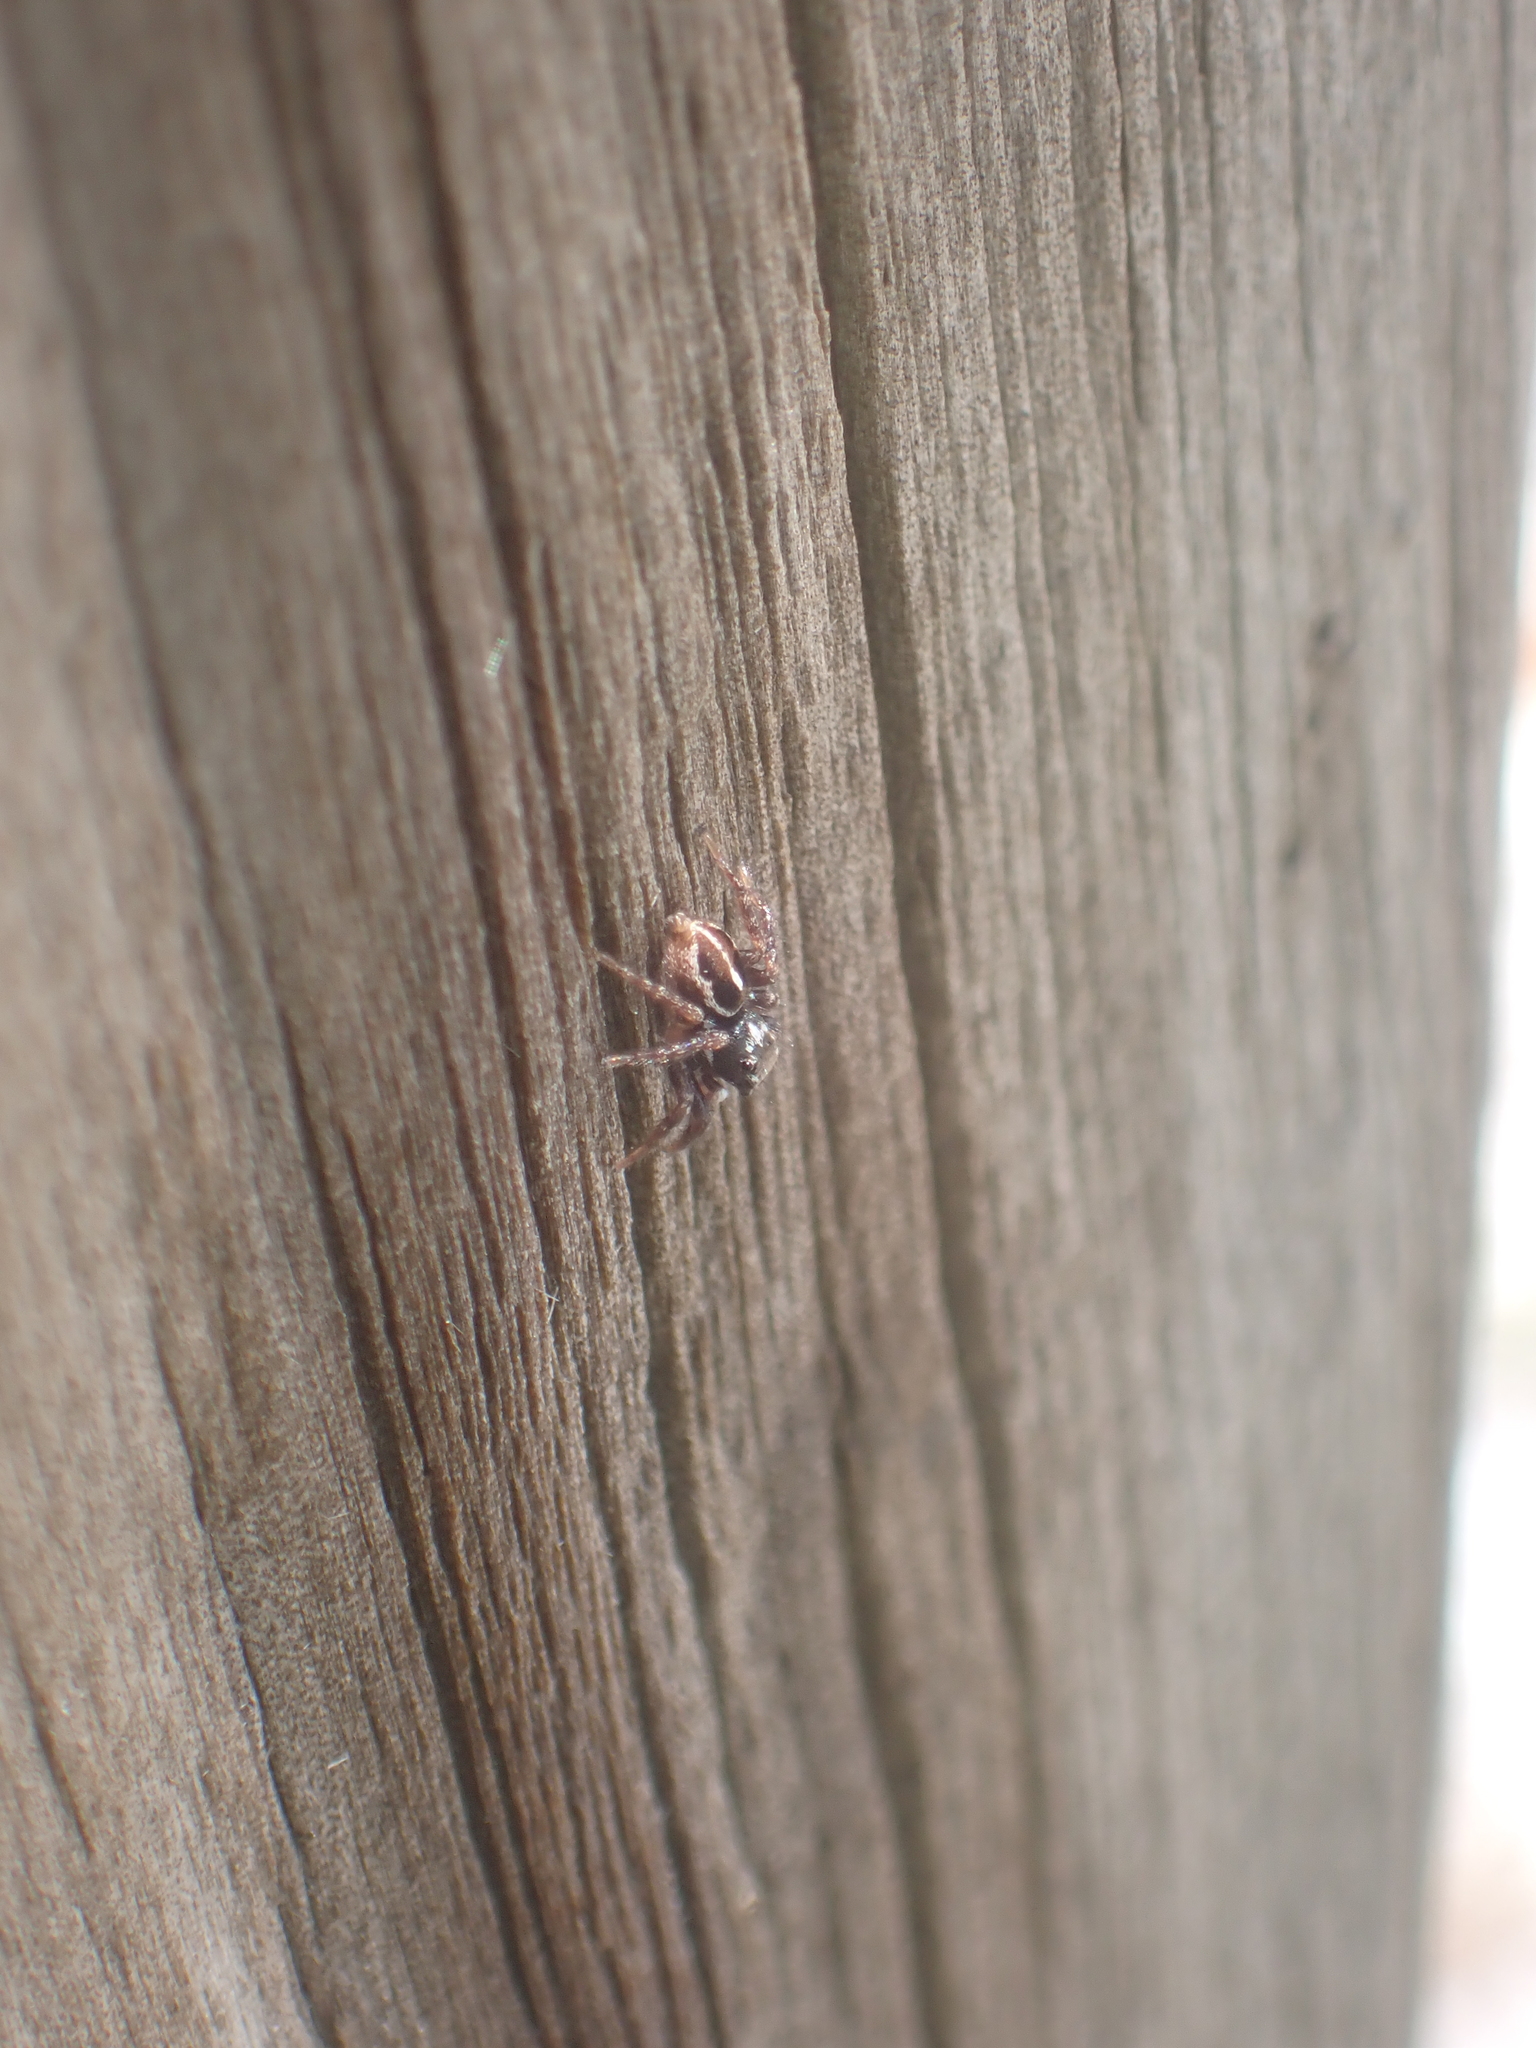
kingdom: Animalia
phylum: Arthropoda
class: Arachnida
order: Araneae
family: Salticidae
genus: Anasaitis
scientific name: Anasaitis canosa
